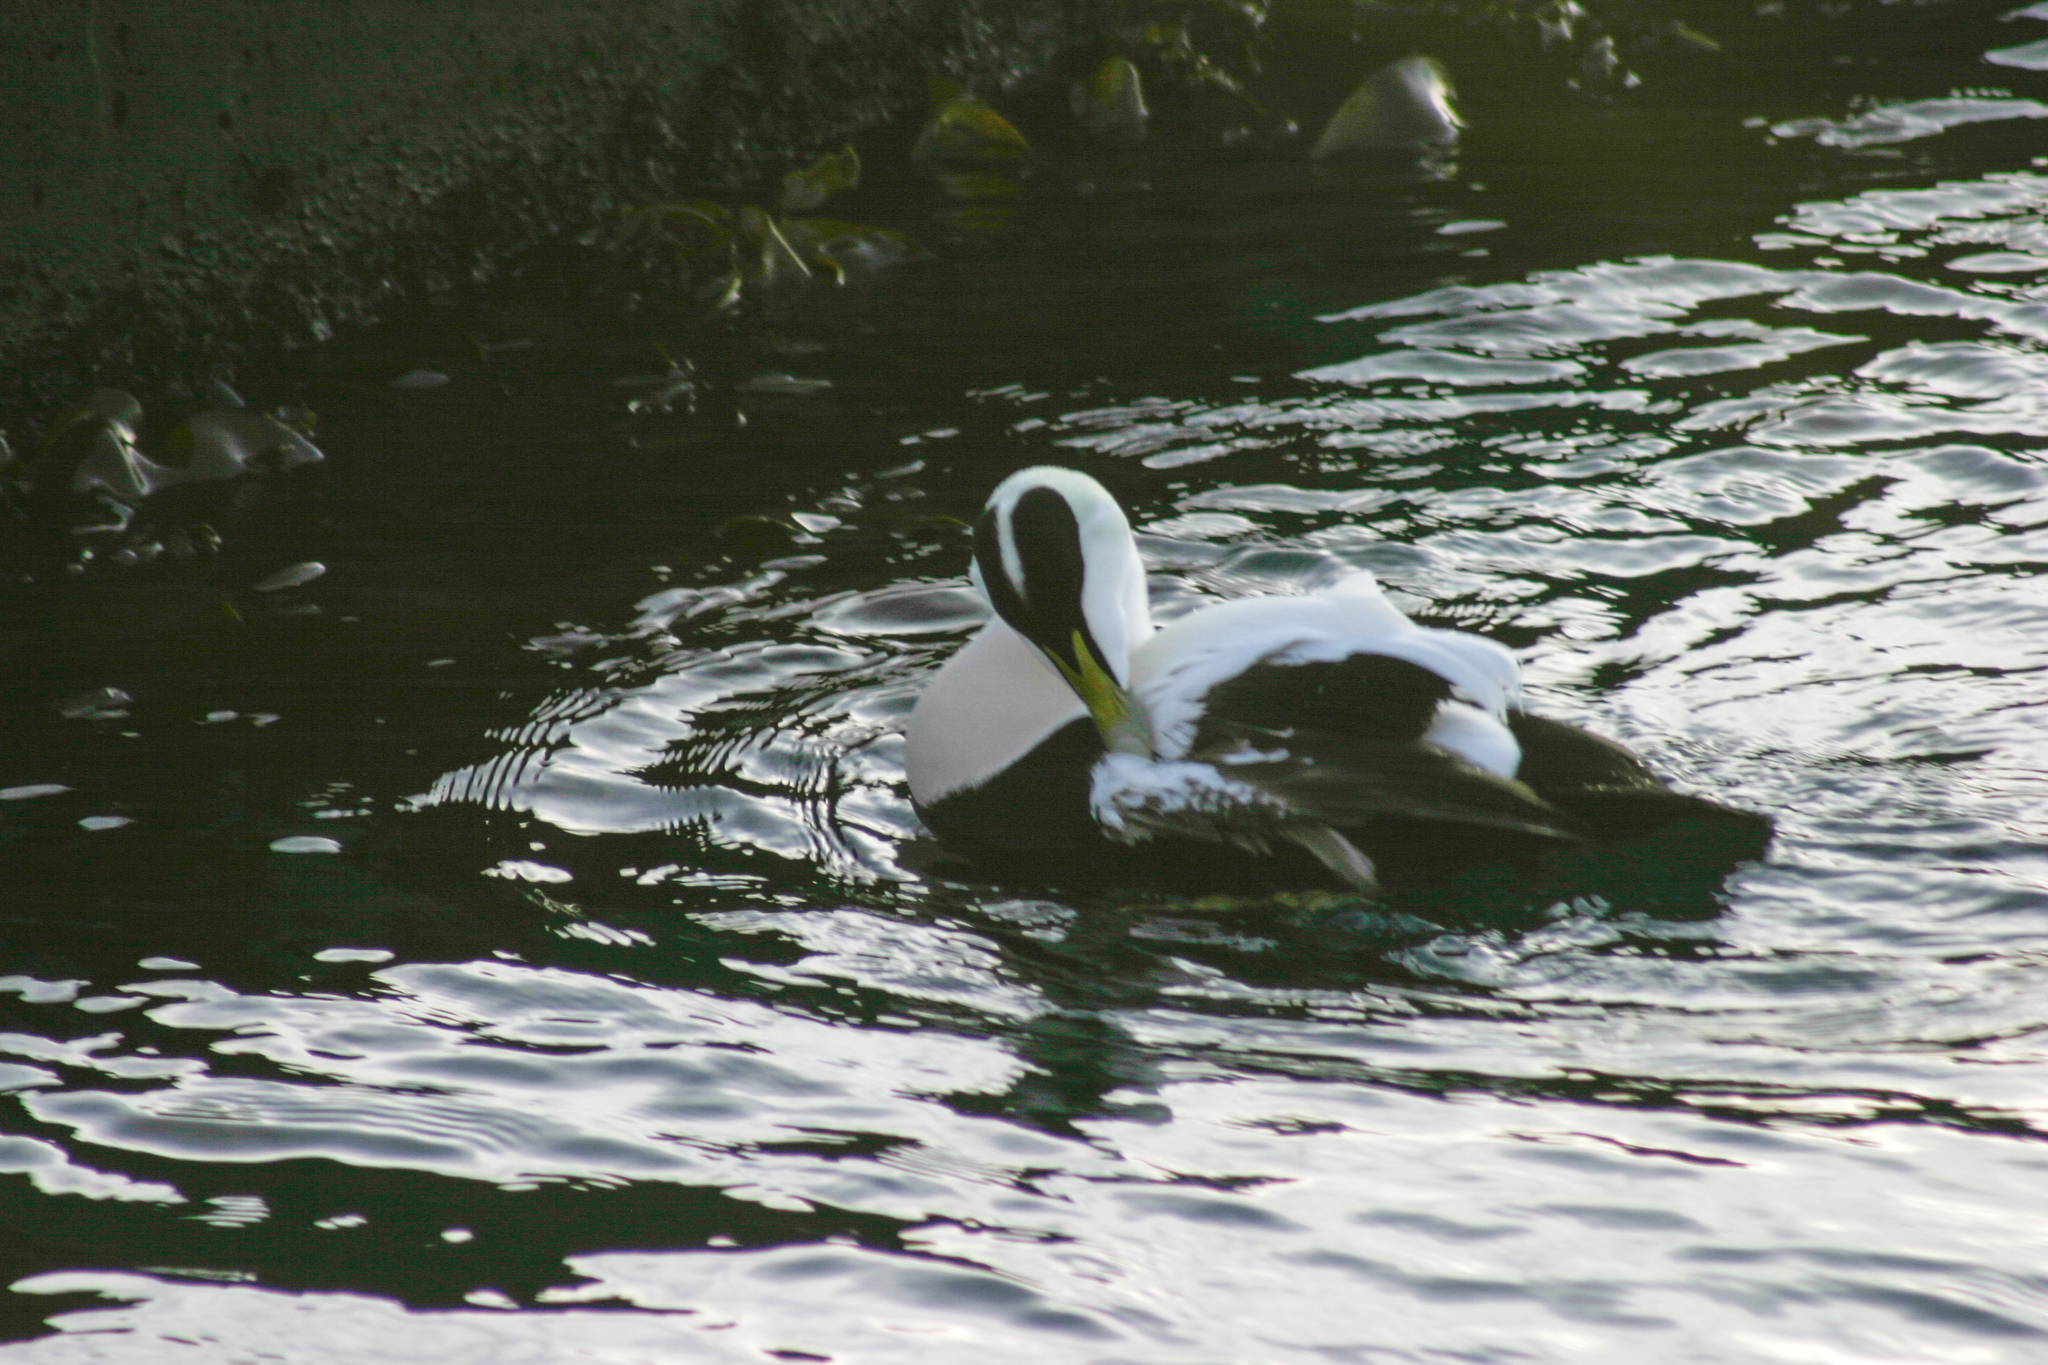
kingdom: Animalia
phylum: Chordata
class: Aves
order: Anseriformes
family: Anatidae
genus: Somateria
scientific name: Somateria mollissima
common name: Common eider
